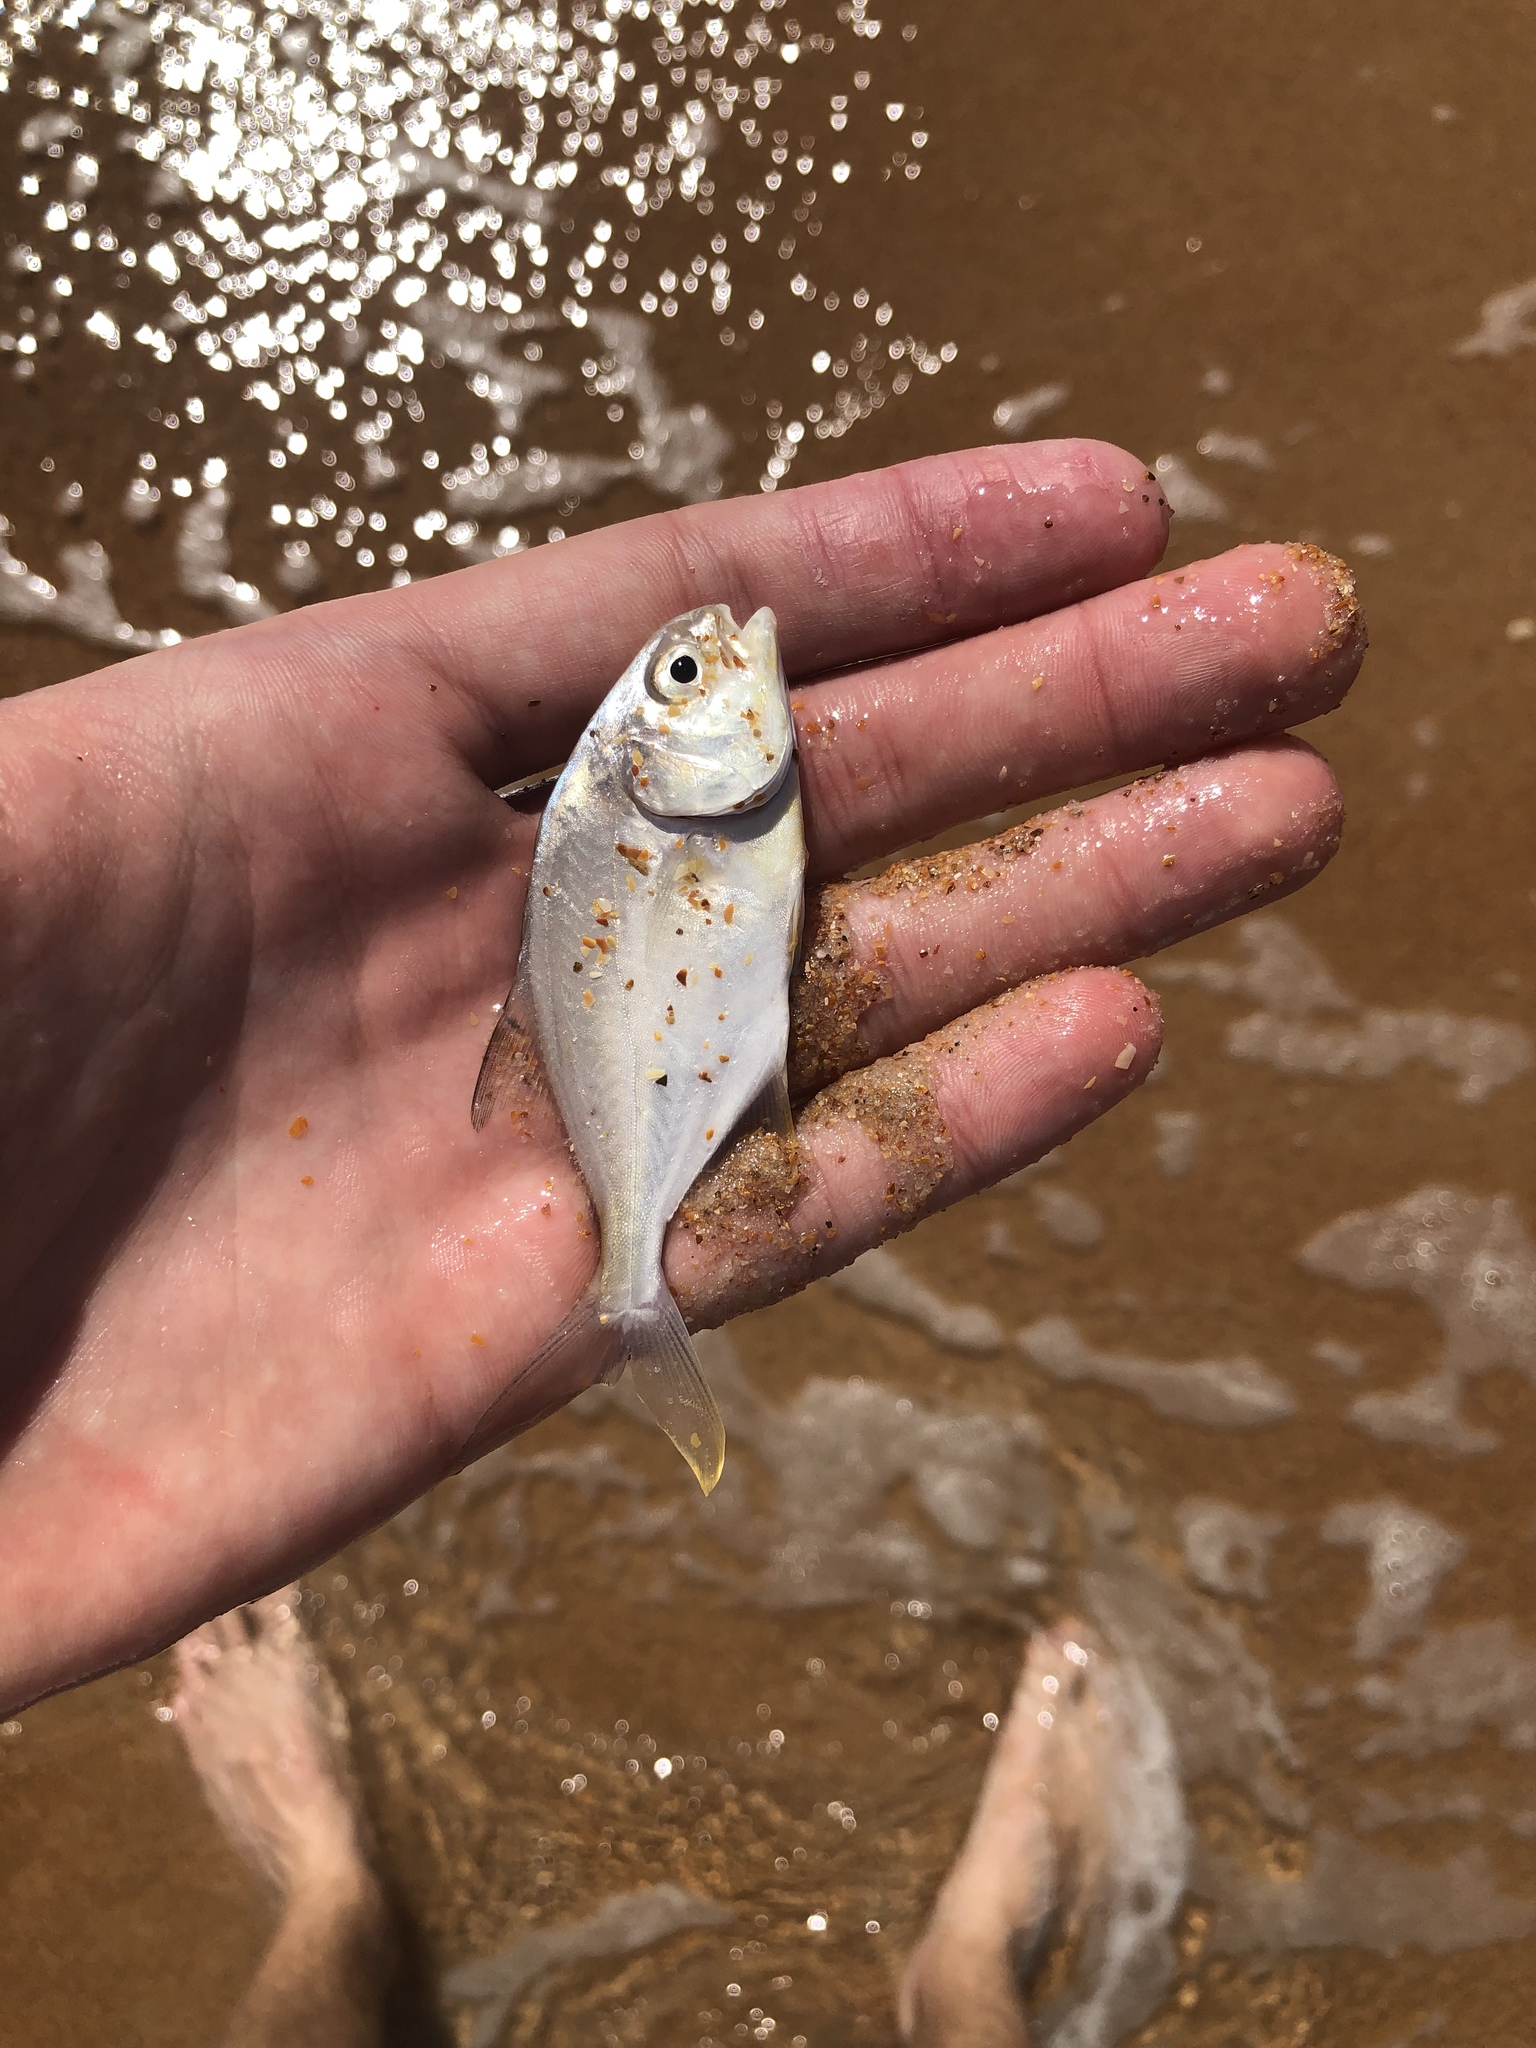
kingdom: Animalia
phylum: Chordata
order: Perciformes
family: Carangidae
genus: Trachinotus
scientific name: Trachinotus carolinus
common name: Florida pompano
